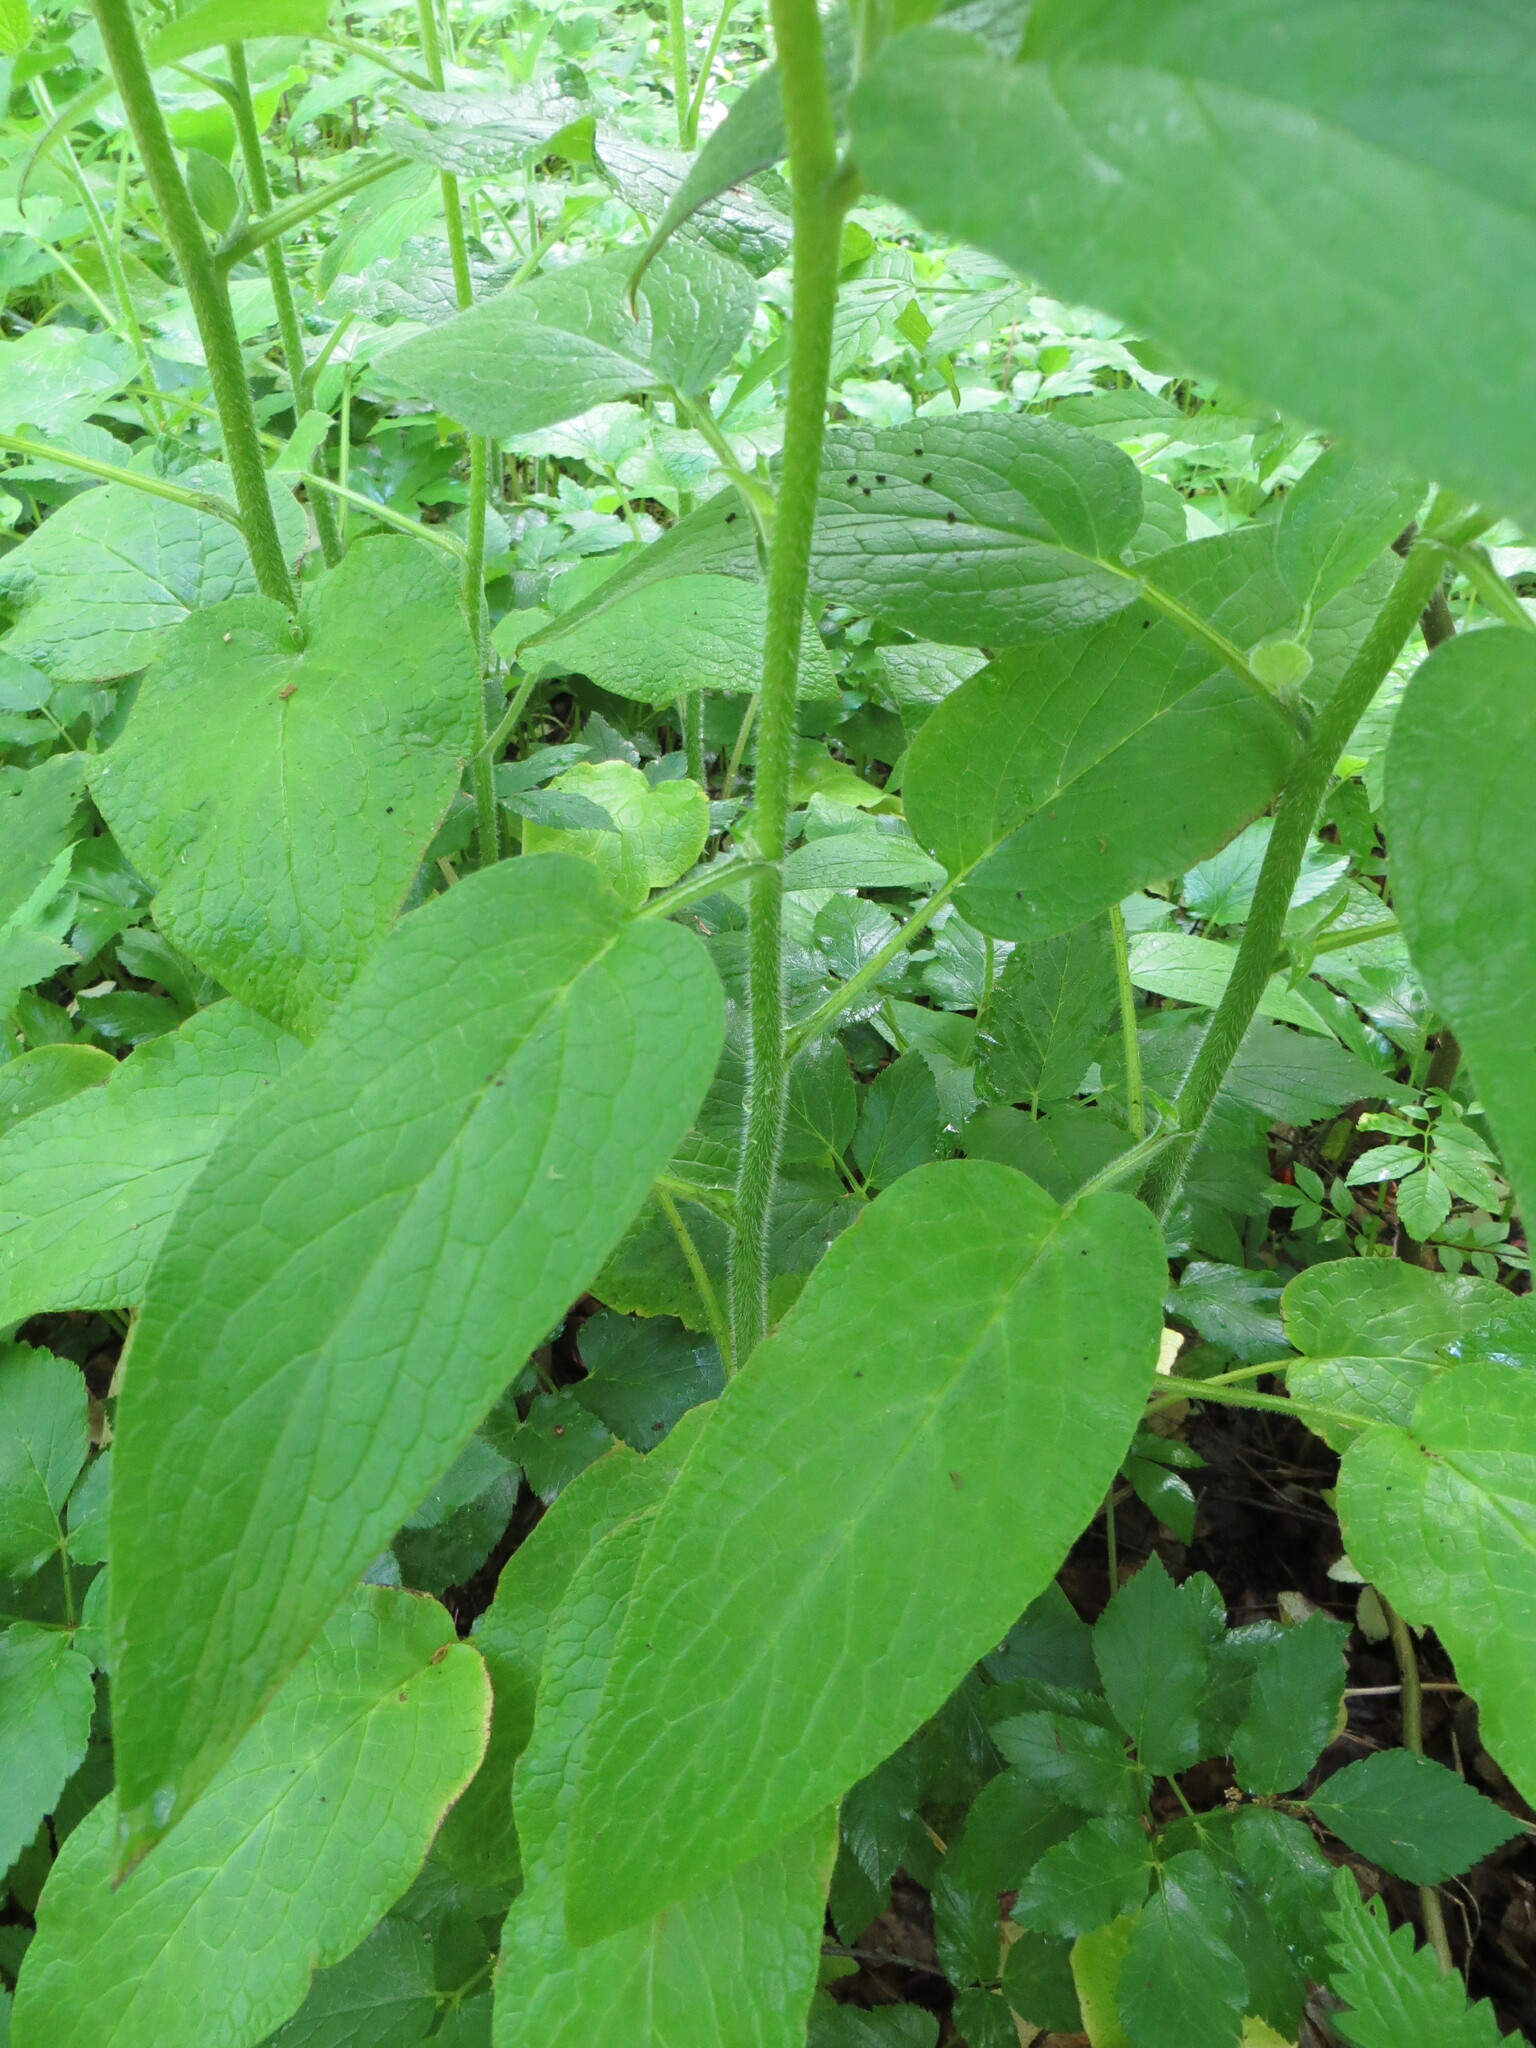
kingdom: Plantae
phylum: Tracheophyta
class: Magnoliopsida
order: Boraginales
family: Boraginaceae
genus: Symphytum
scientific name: Symphytum asperum
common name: Prickly comfrey
